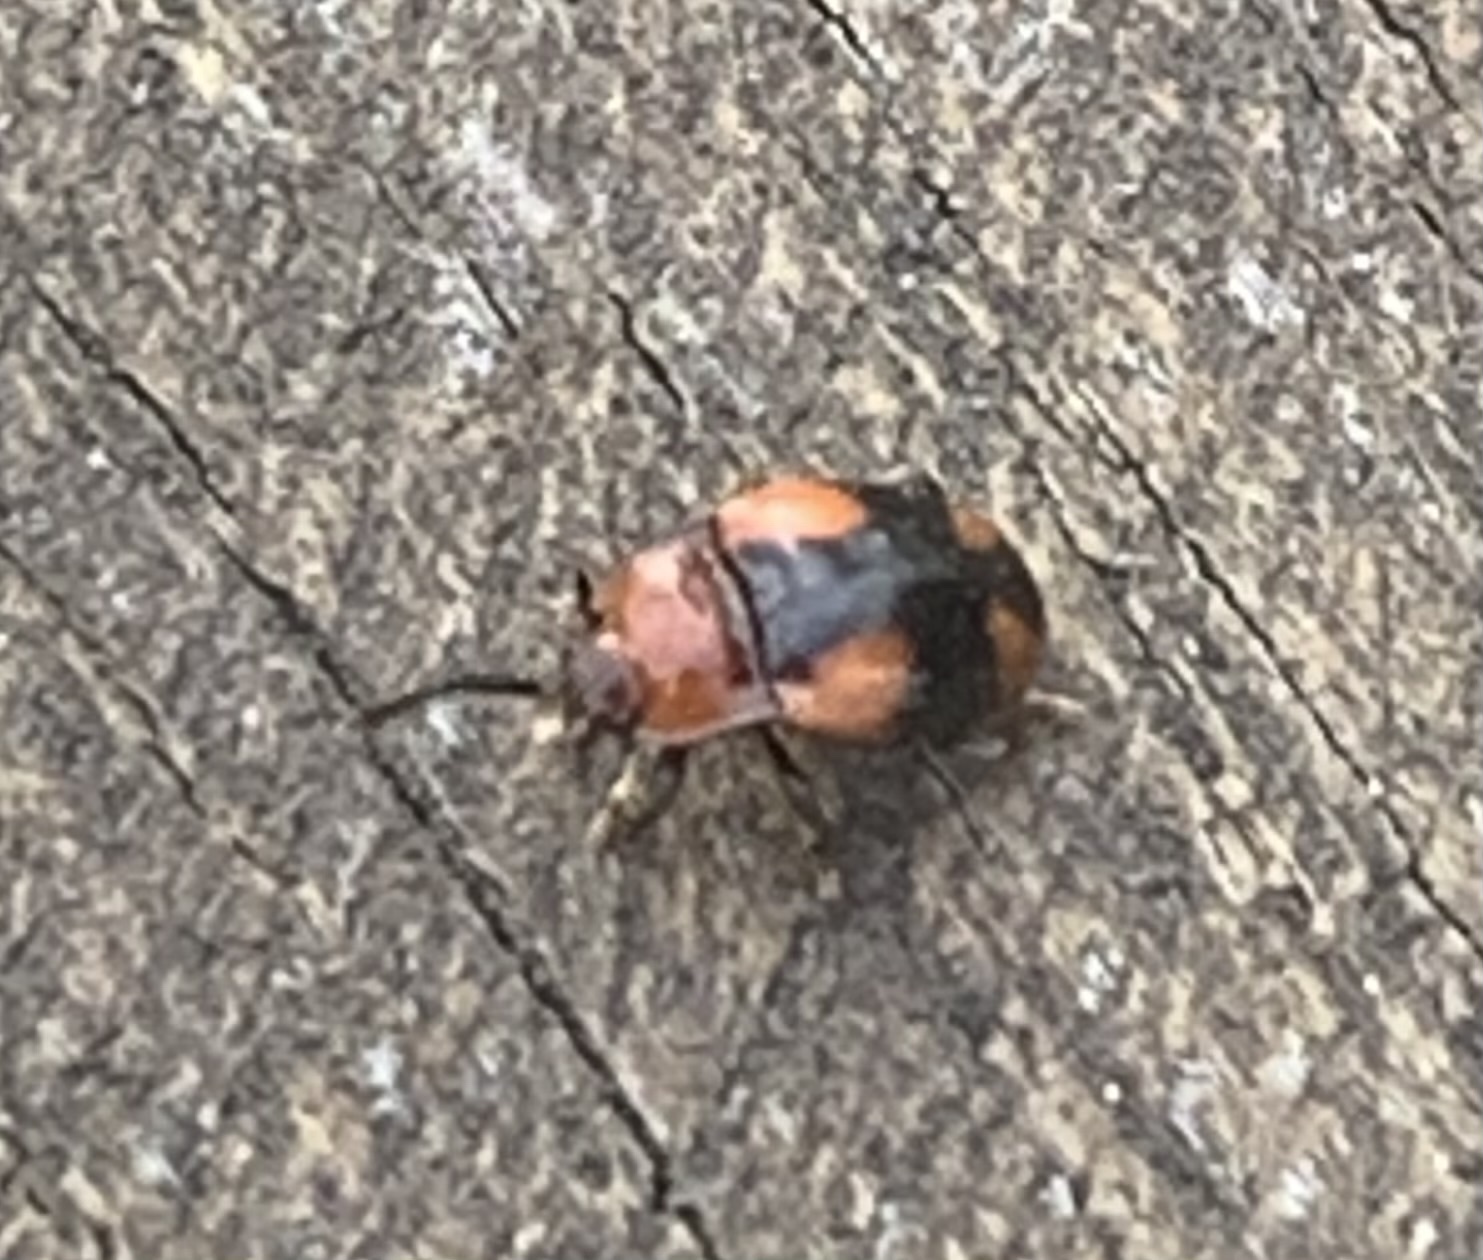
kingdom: Animalia
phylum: Arthropoda
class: Insecta
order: Coleoptera
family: Endomychidae
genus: Mycetina
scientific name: Mycetina cruciata
